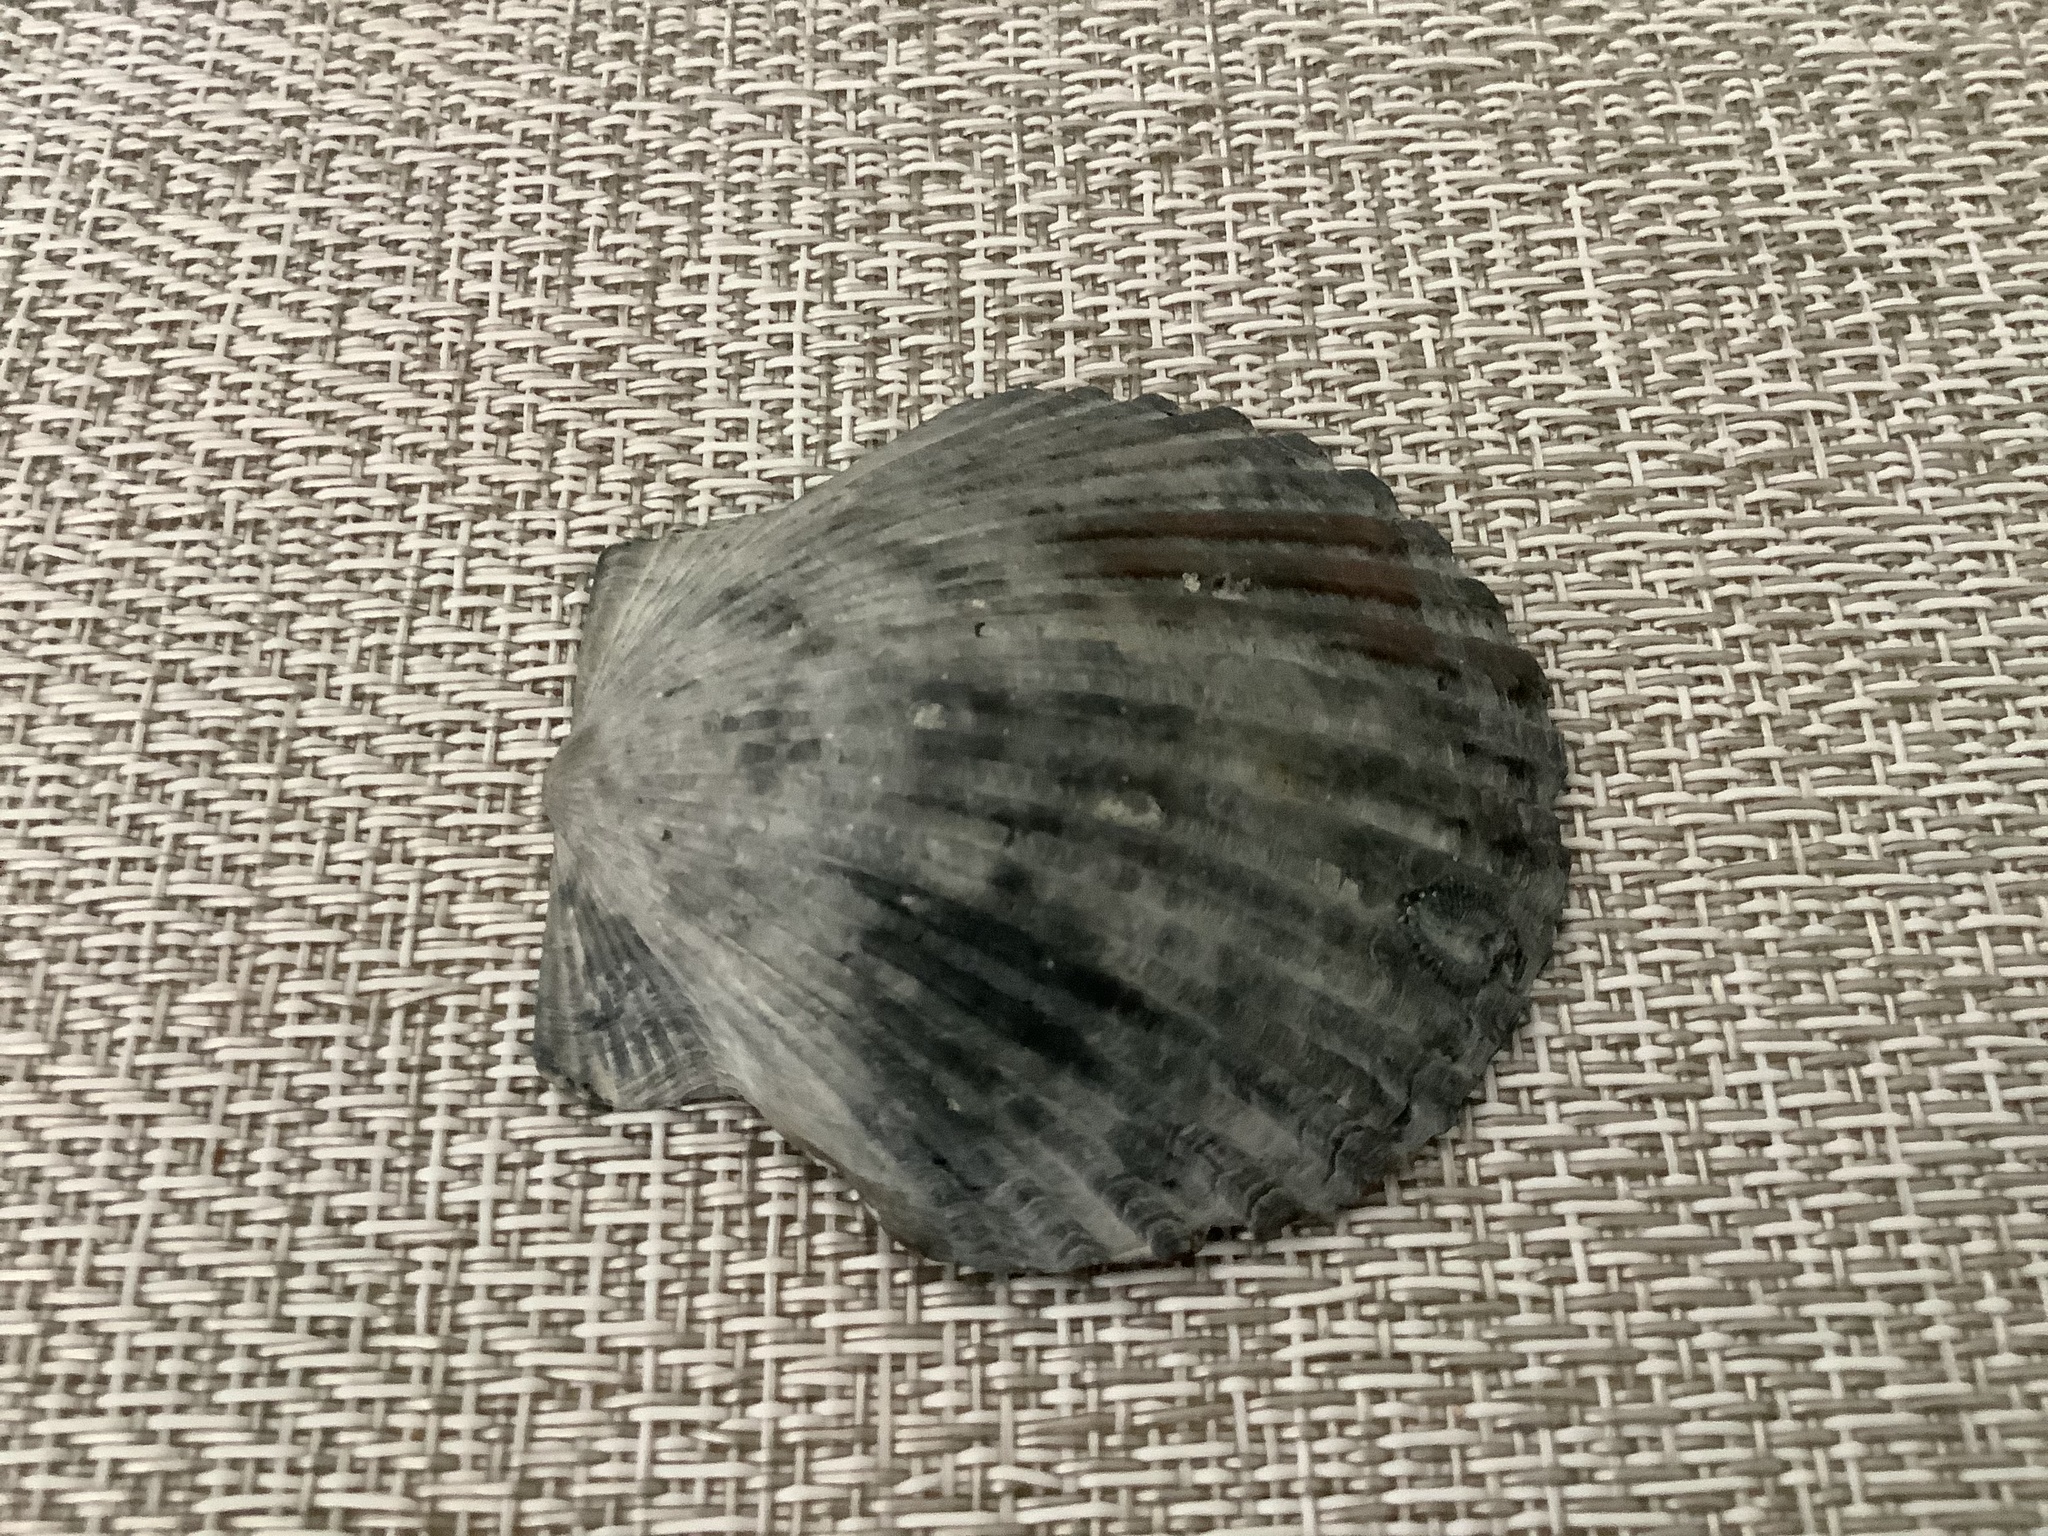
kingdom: Animalia
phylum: Mollusca
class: Bivalvia
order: Pectinida
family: Pectinidae
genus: Argopecten
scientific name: Argopecten irradians
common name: Atlantic bay scallop
